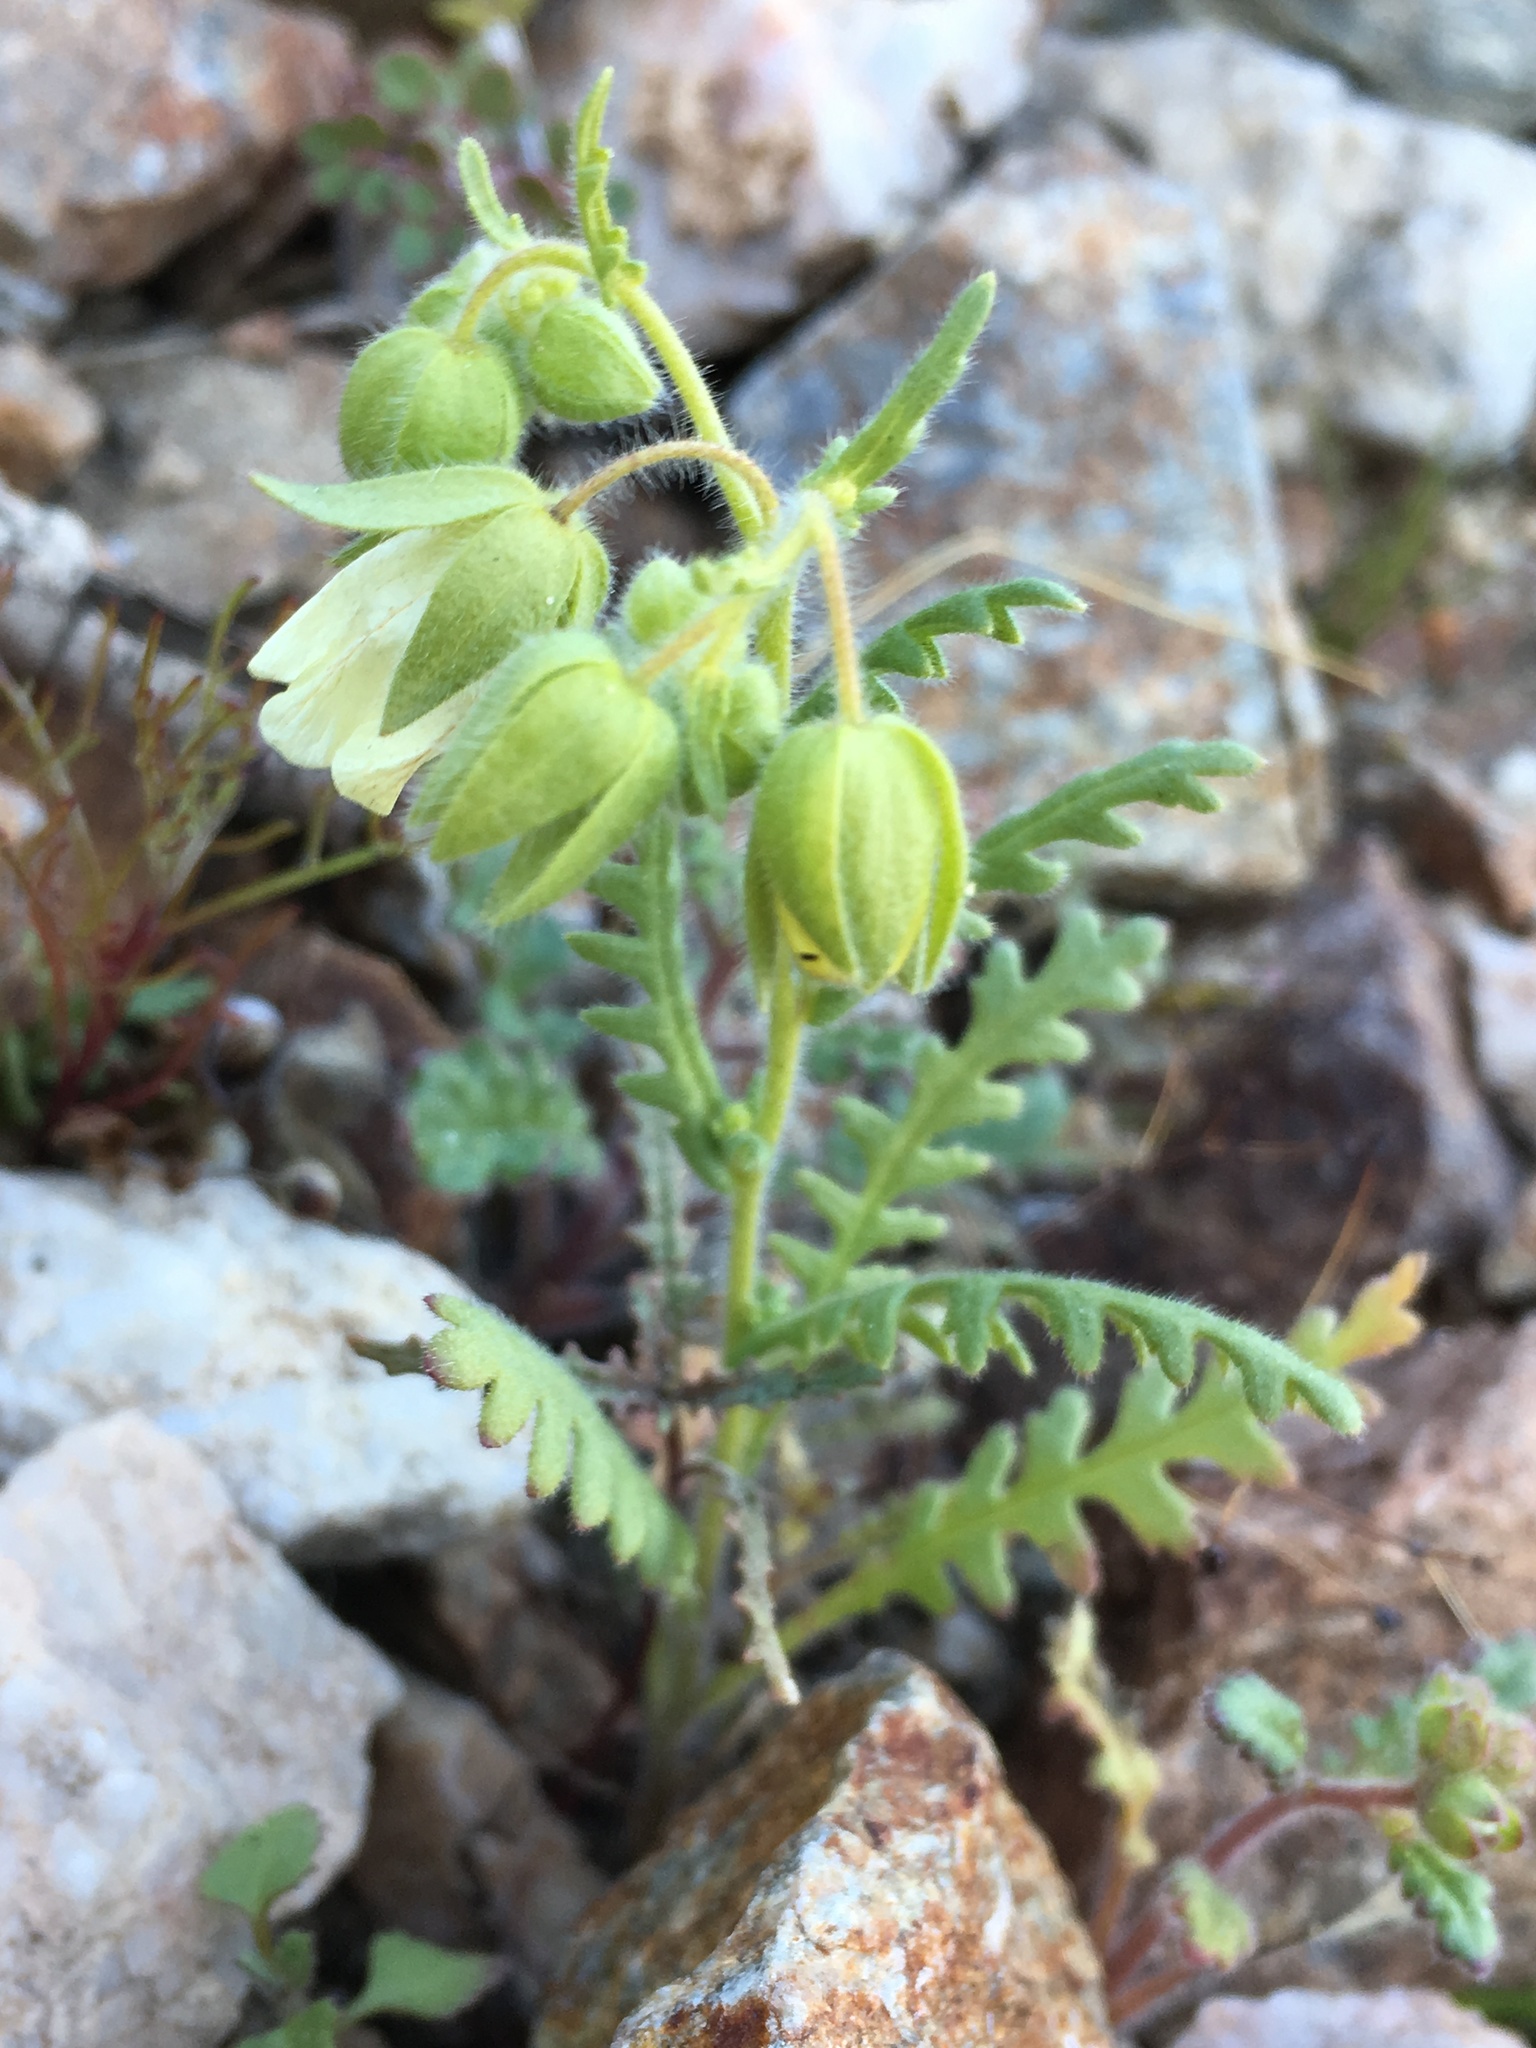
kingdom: Plantae
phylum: Tracheophyta
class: Magnoliopsida
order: Boraginales
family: Hydrophyllaceae
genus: Emmenanthe
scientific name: Emmenanthe penduliflora
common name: Whispering-bells
